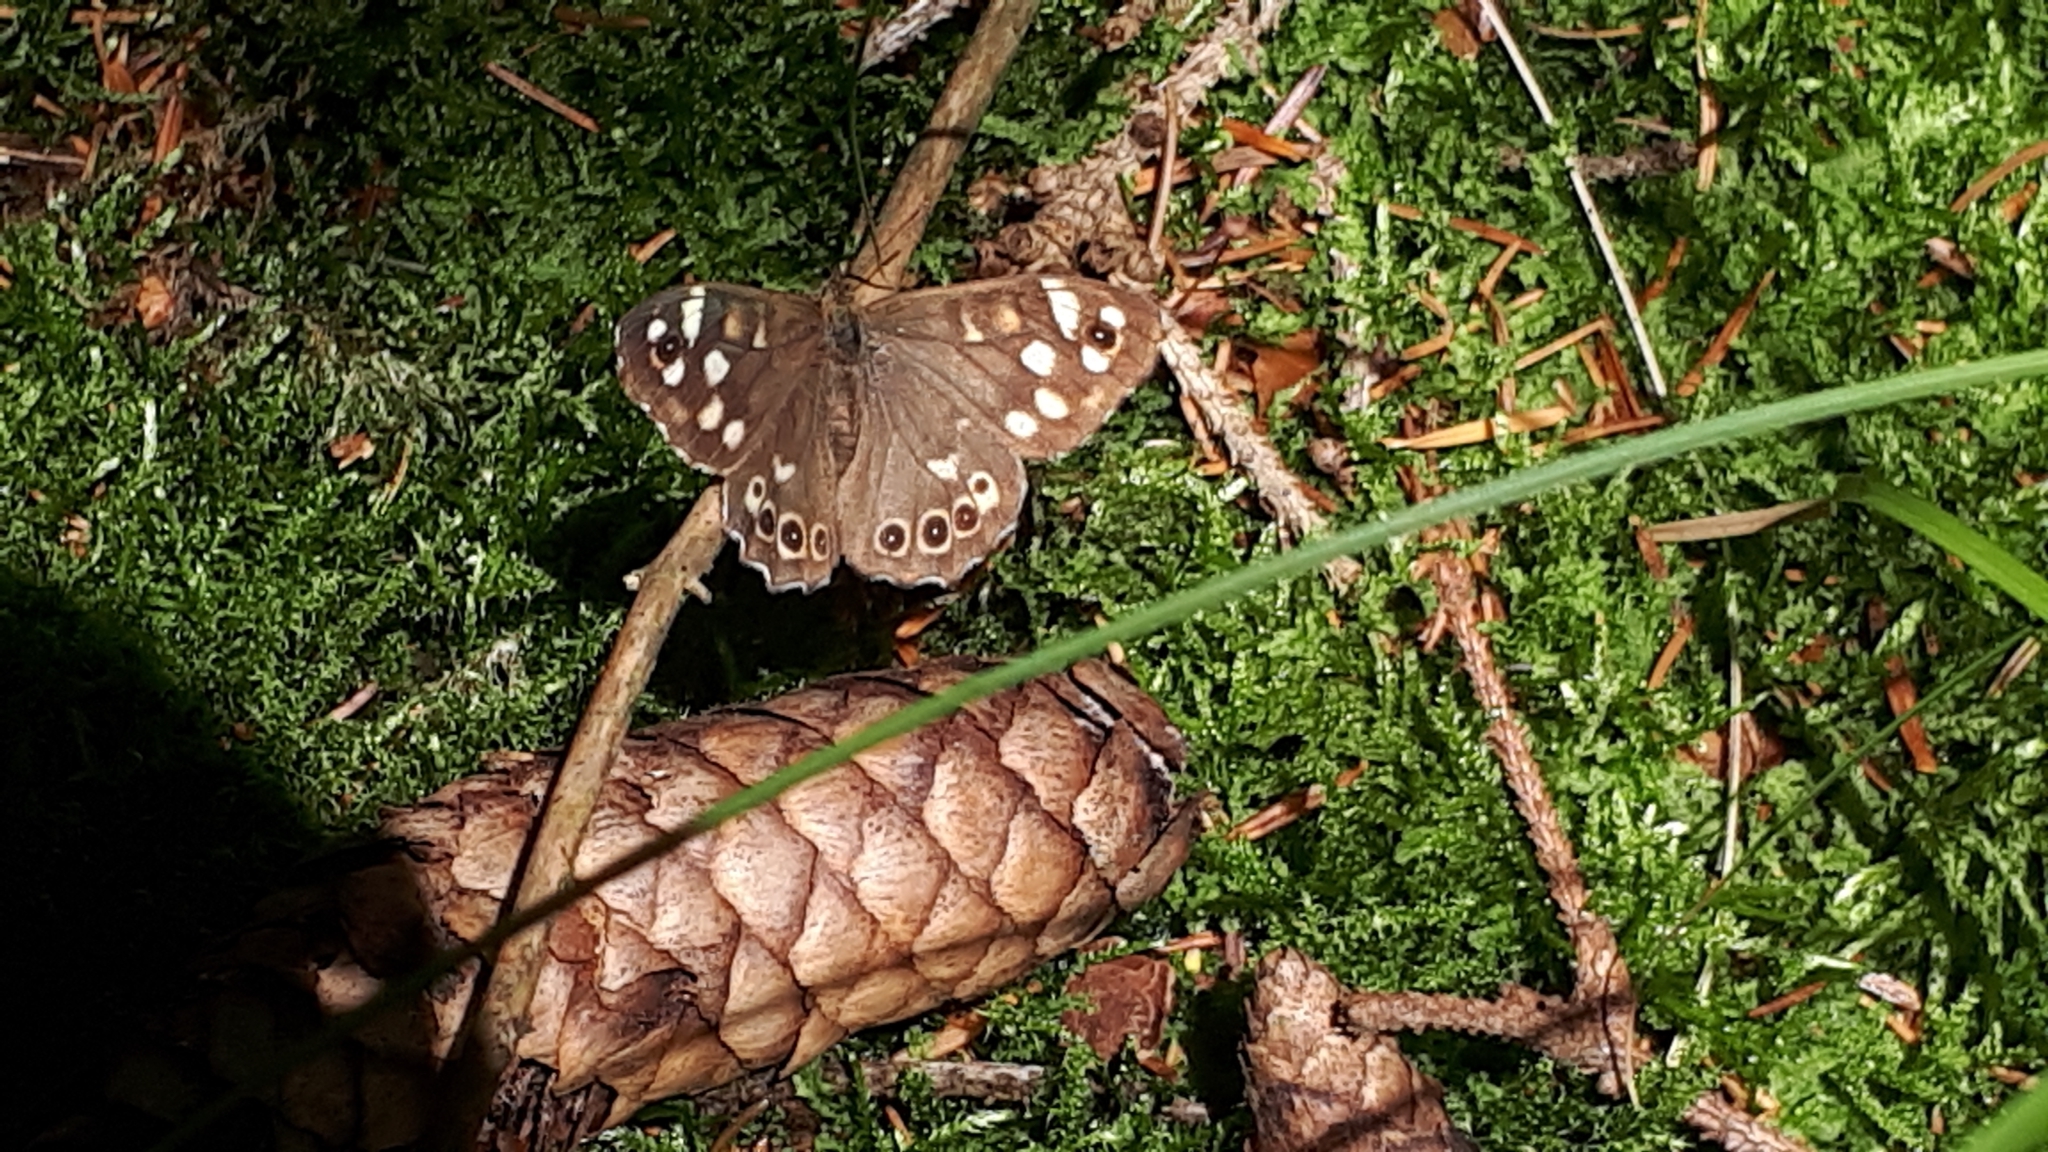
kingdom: Animalia
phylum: Arthropoda
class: Insecta
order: Lepidoptera
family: Nymphalidae
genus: Pararge
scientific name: Pararge aegeria
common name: Speckled wood
